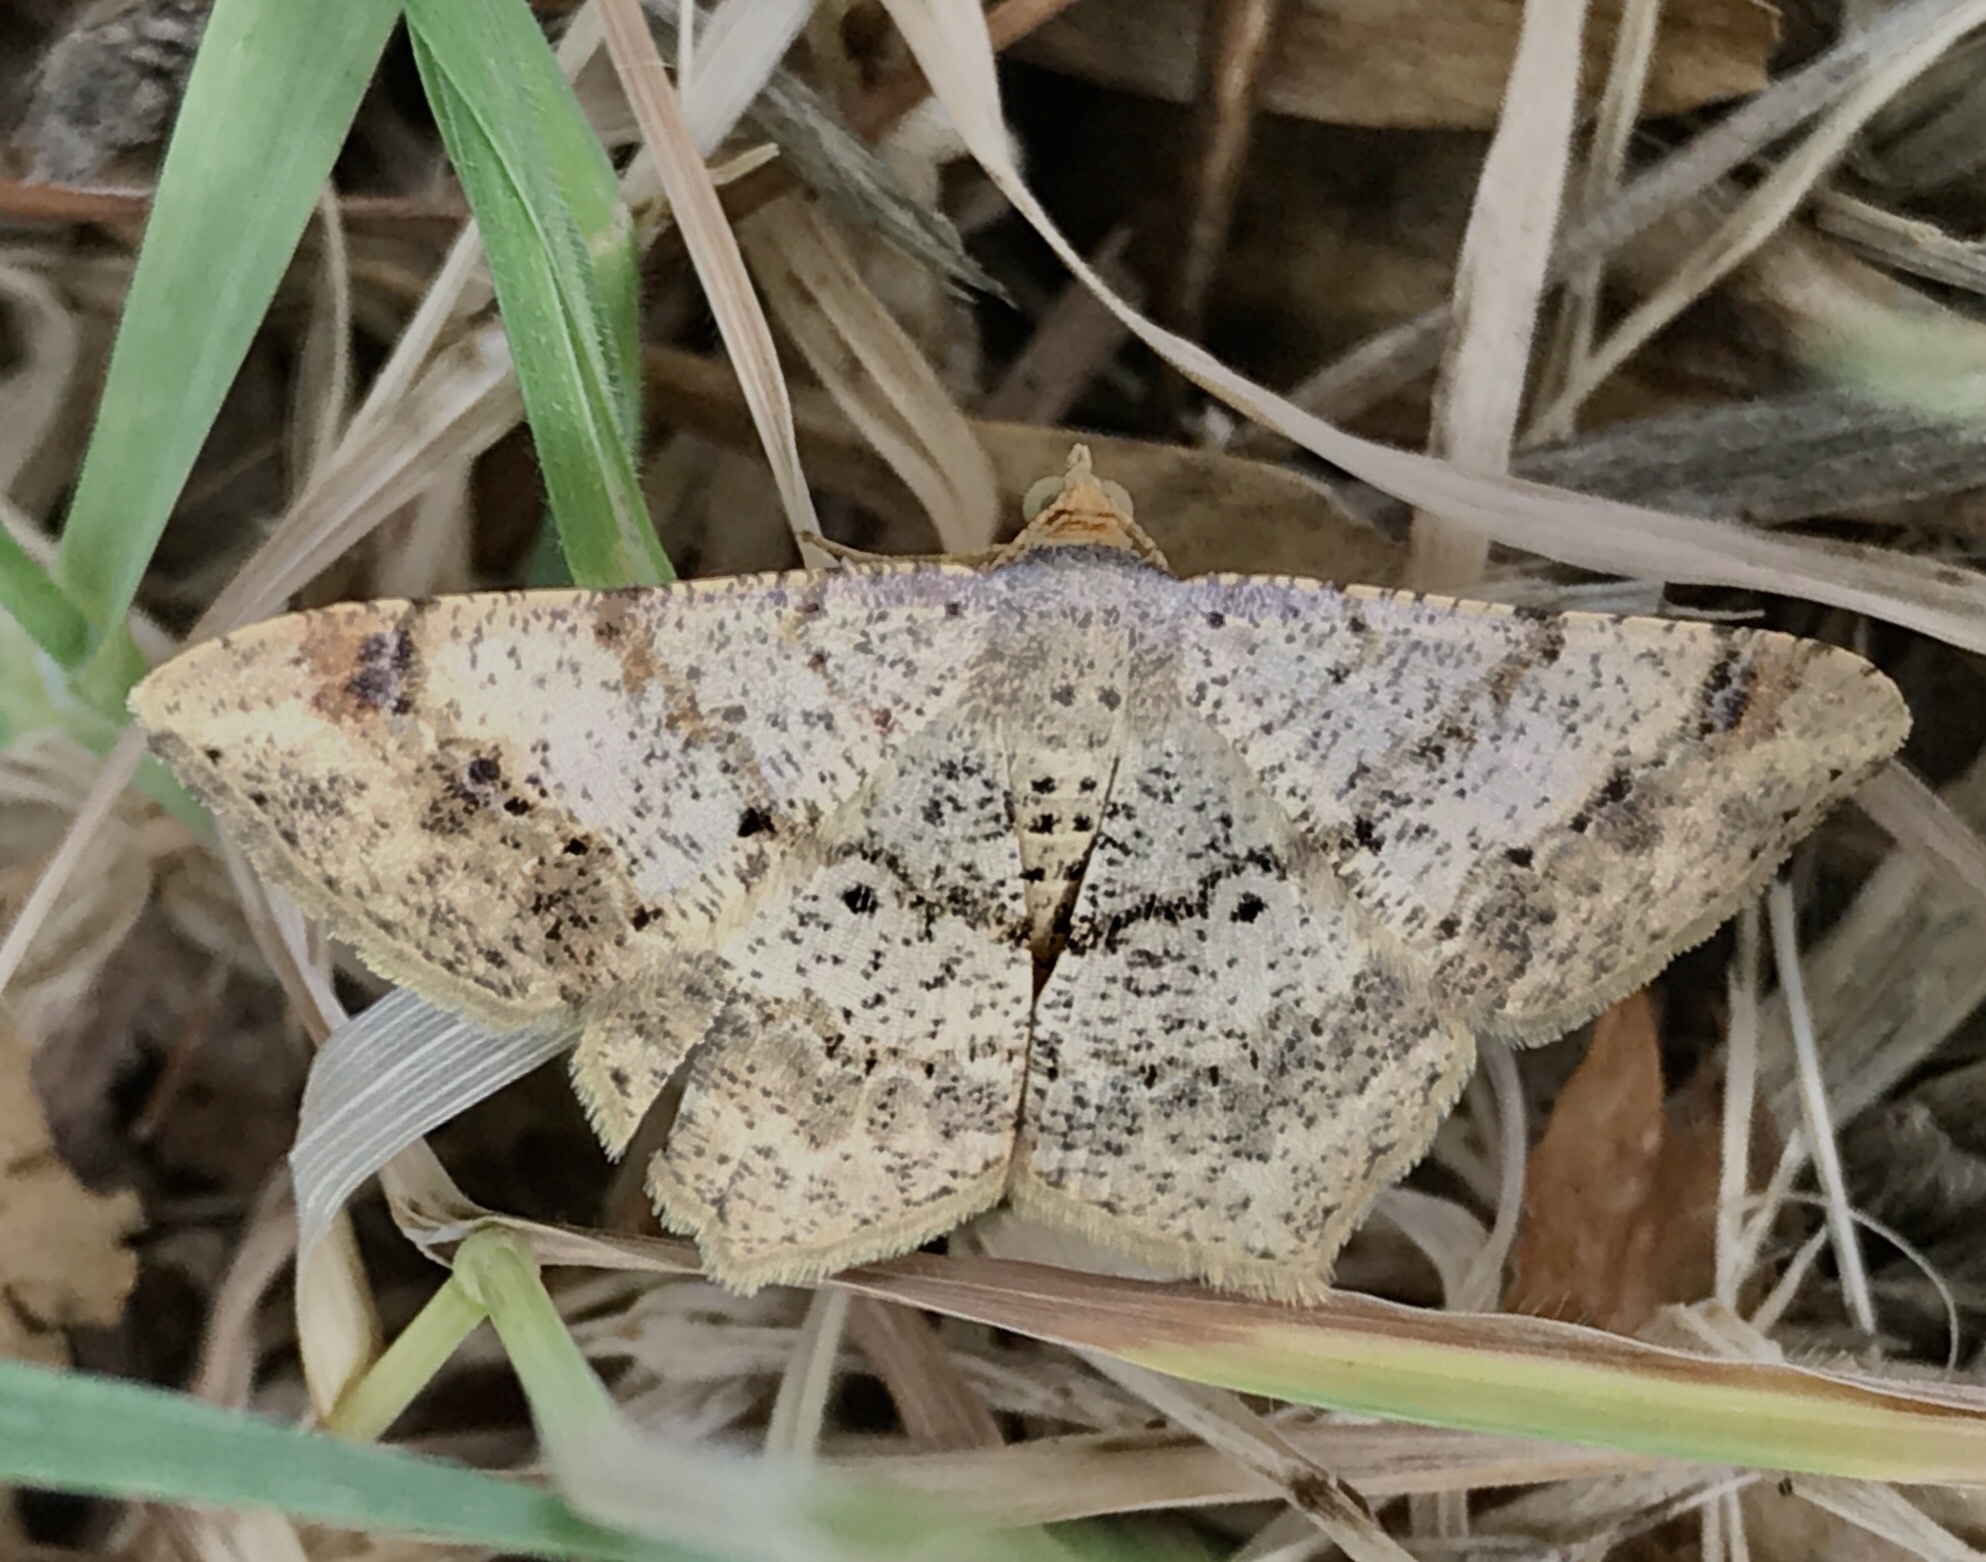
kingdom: Animalia
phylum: Arthropoda
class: Insecta
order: Lepidoptera
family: Geometridae
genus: Macaria
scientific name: Macaria abydata
